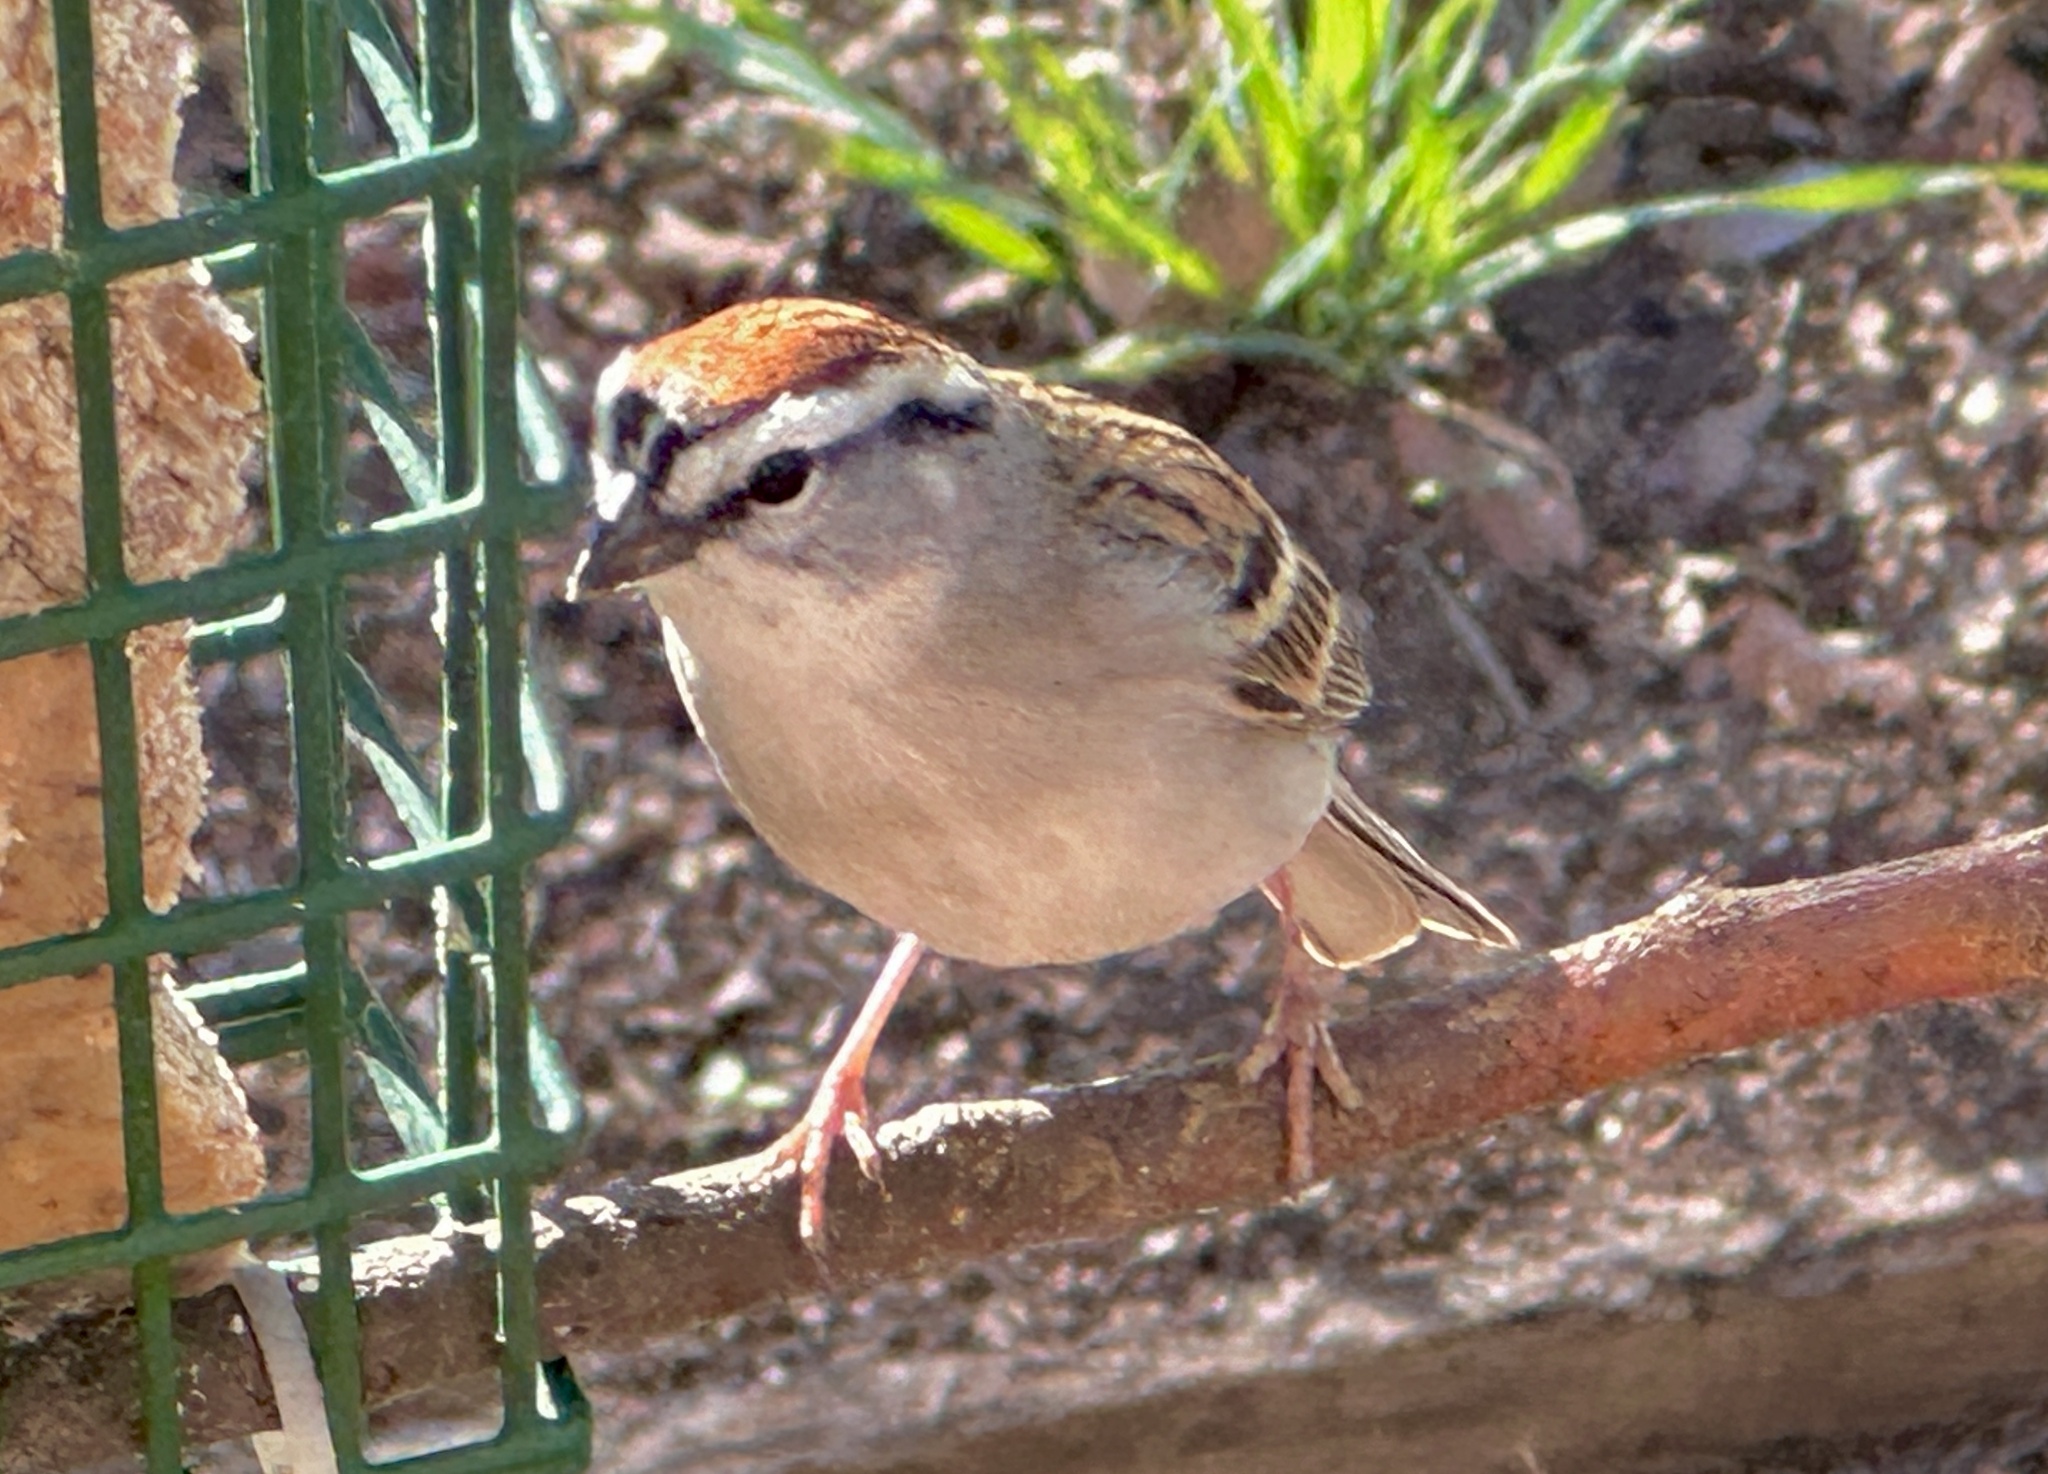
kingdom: Animalia
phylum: Chordata
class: Aves
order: Passeriformes
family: Passerellidae
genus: Spizella
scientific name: Spizella passerina
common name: Chipping sparrow
